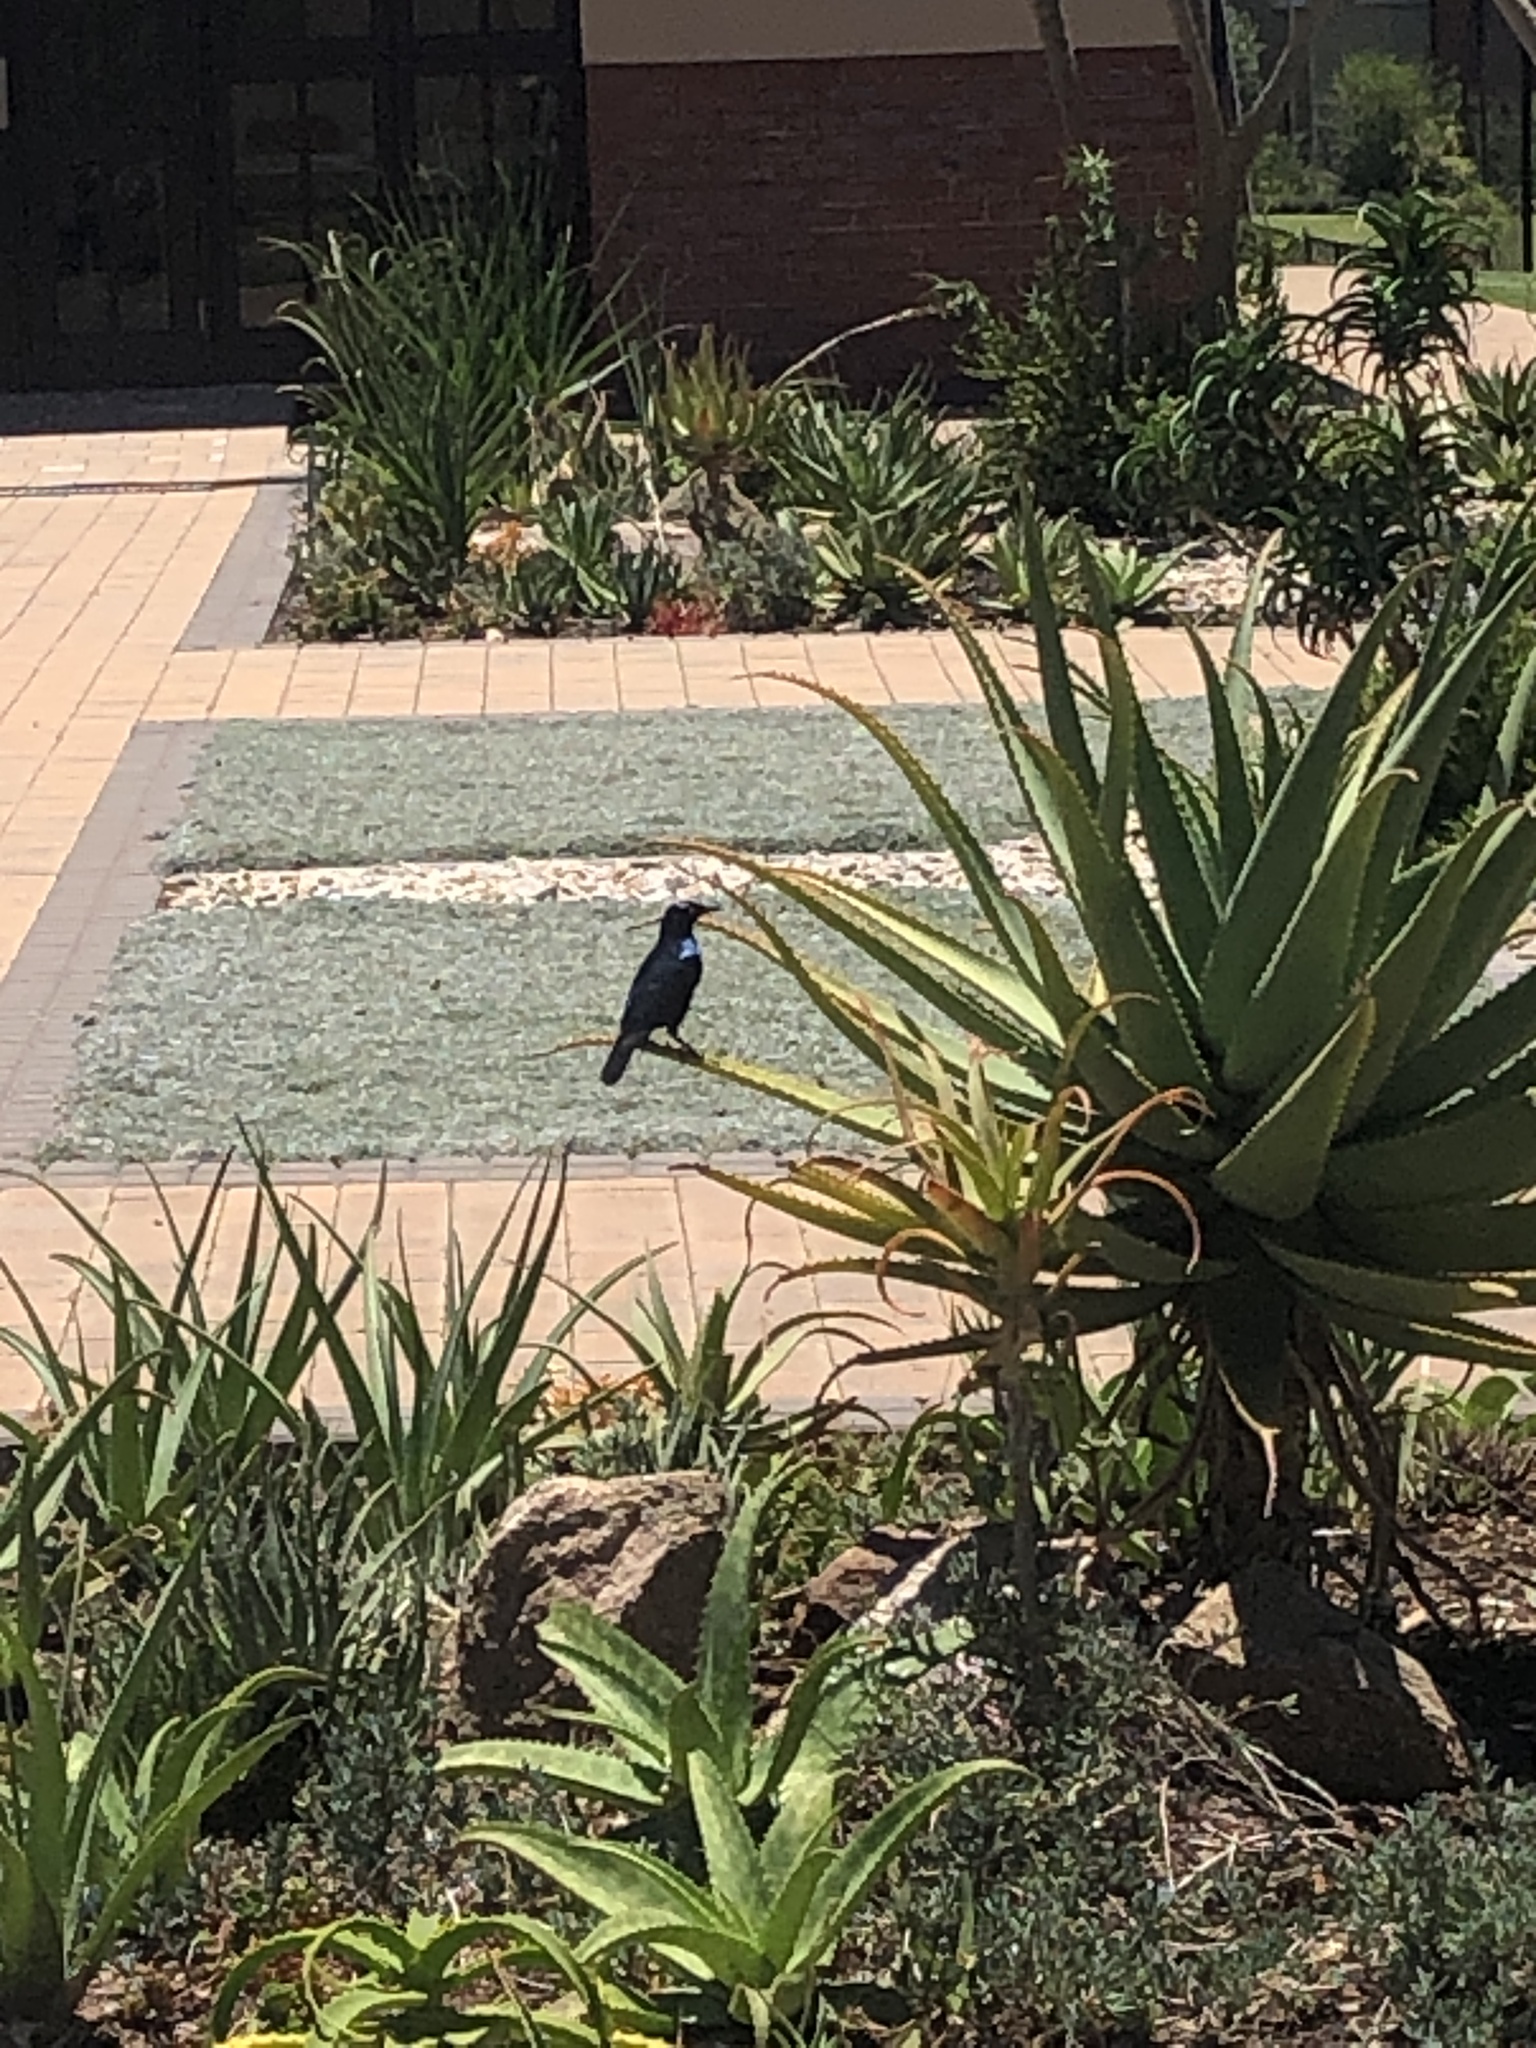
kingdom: Animalia
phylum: Chordata
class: Aves
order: Passeriformes
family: Sturnidae
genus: Lamprotornis
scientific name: Lamprotornis nitens
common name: Cape starling
